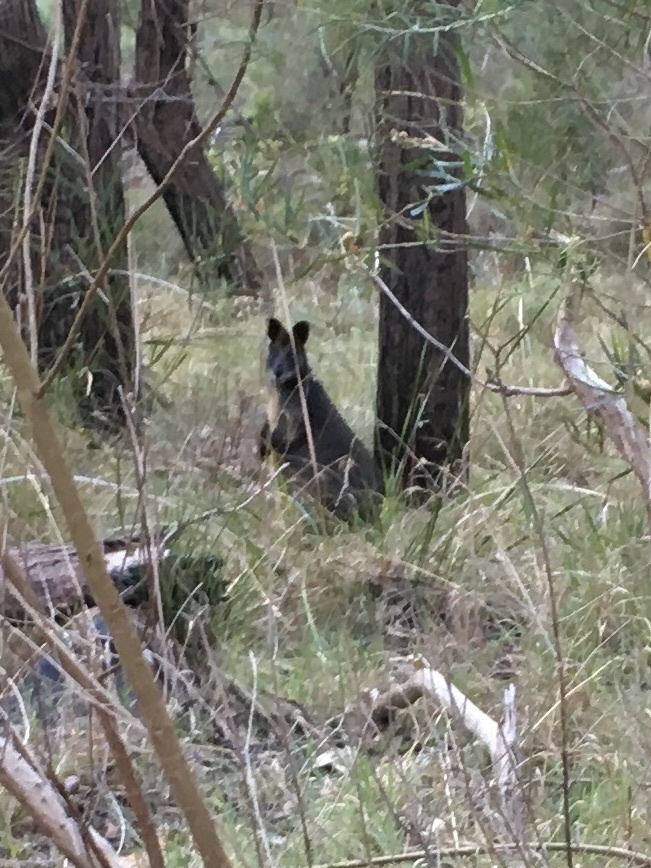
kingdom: Animalia
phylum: Chordata
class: Mammalia
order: Diprotodontia
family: Macropodidae
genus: Wallabia
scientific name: Wallabia bicolor
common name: Swamp wallaby
